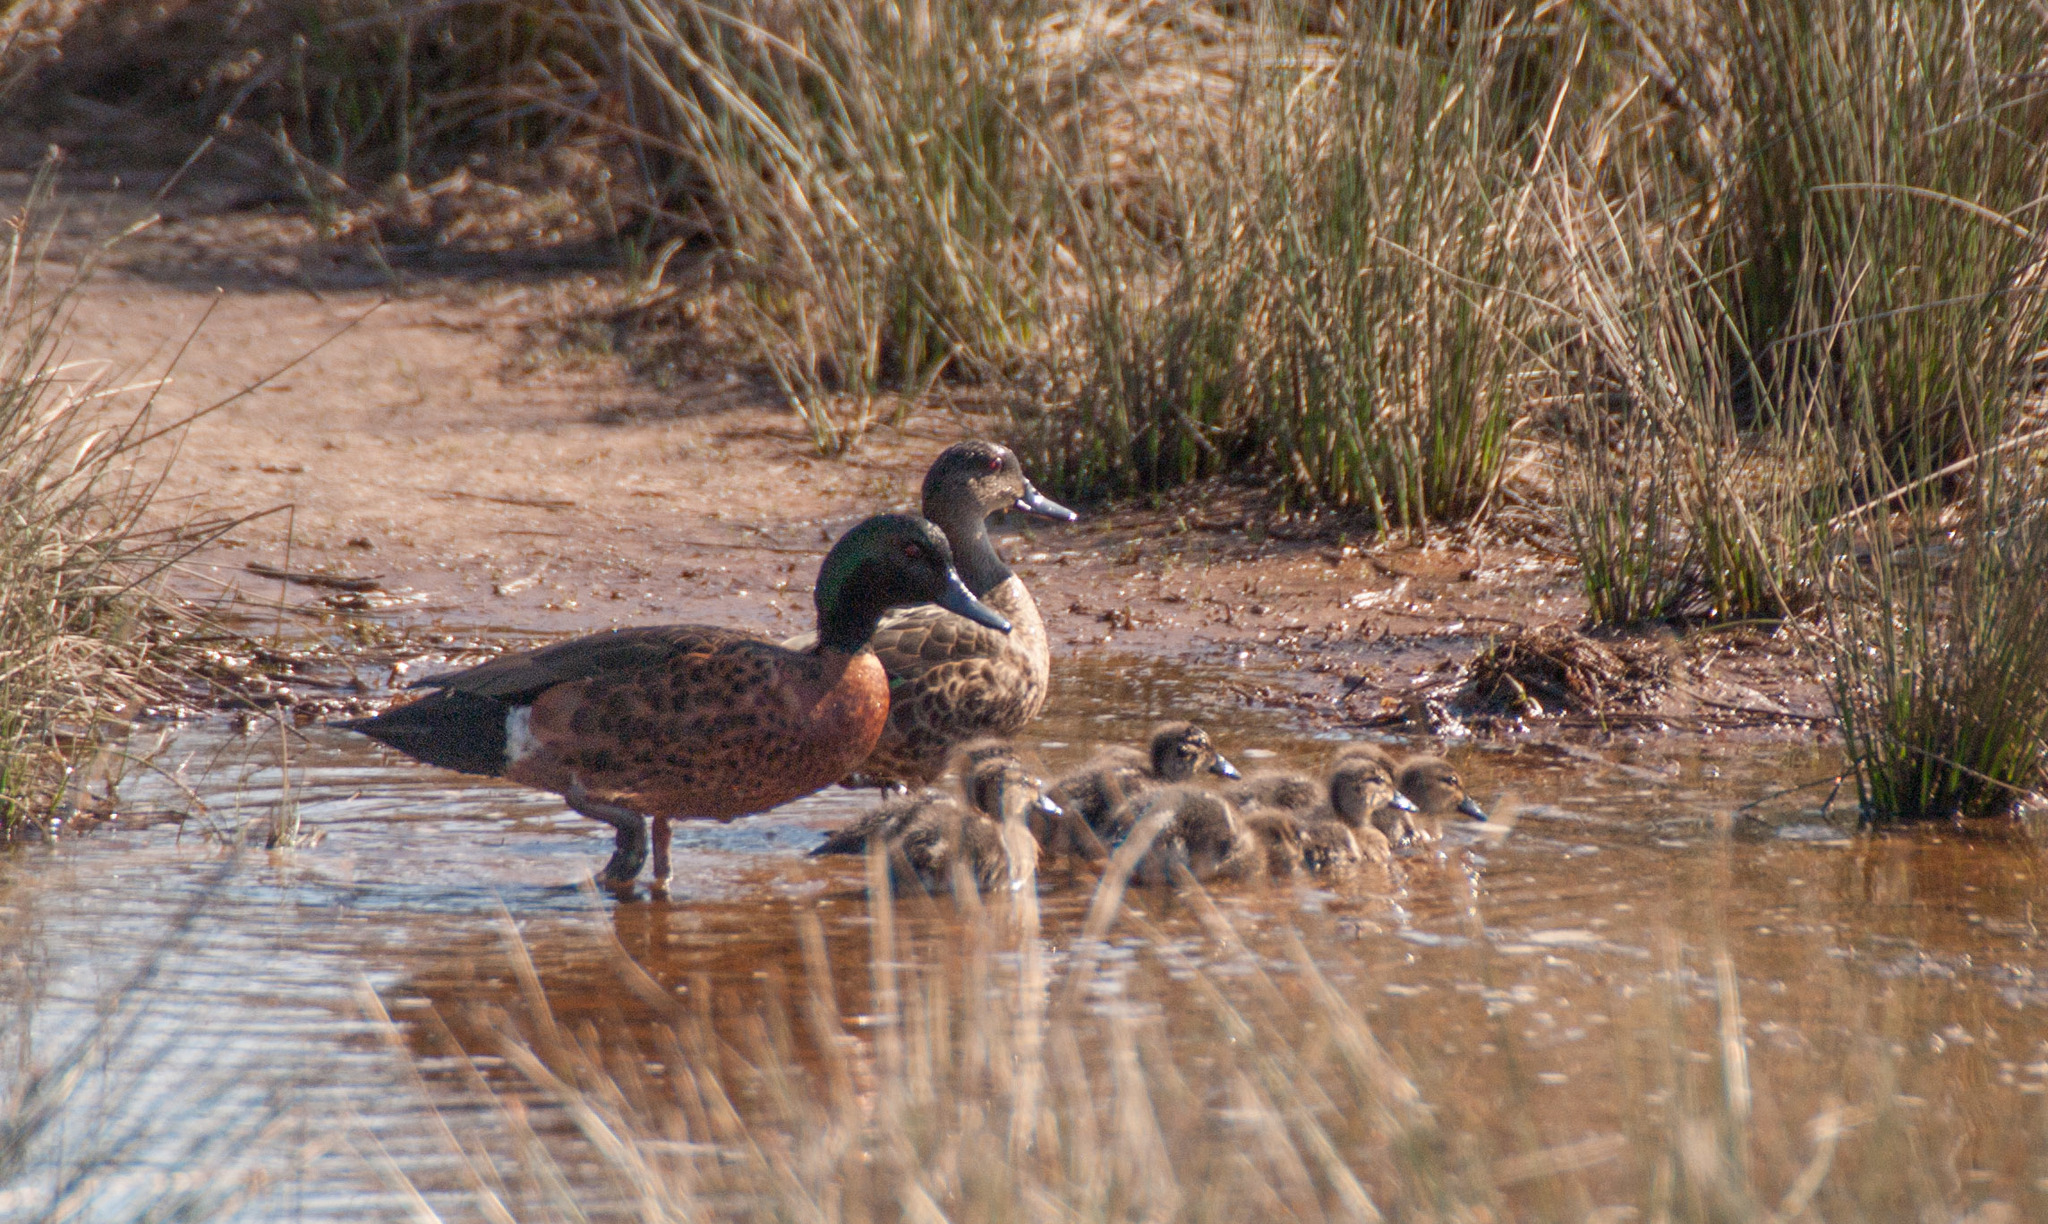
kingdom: Animalia
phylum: Chordata
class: Aves
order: Anseriformes
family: Anatidae
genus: Anas
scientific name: Anas castanea
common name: Chestnut teal
